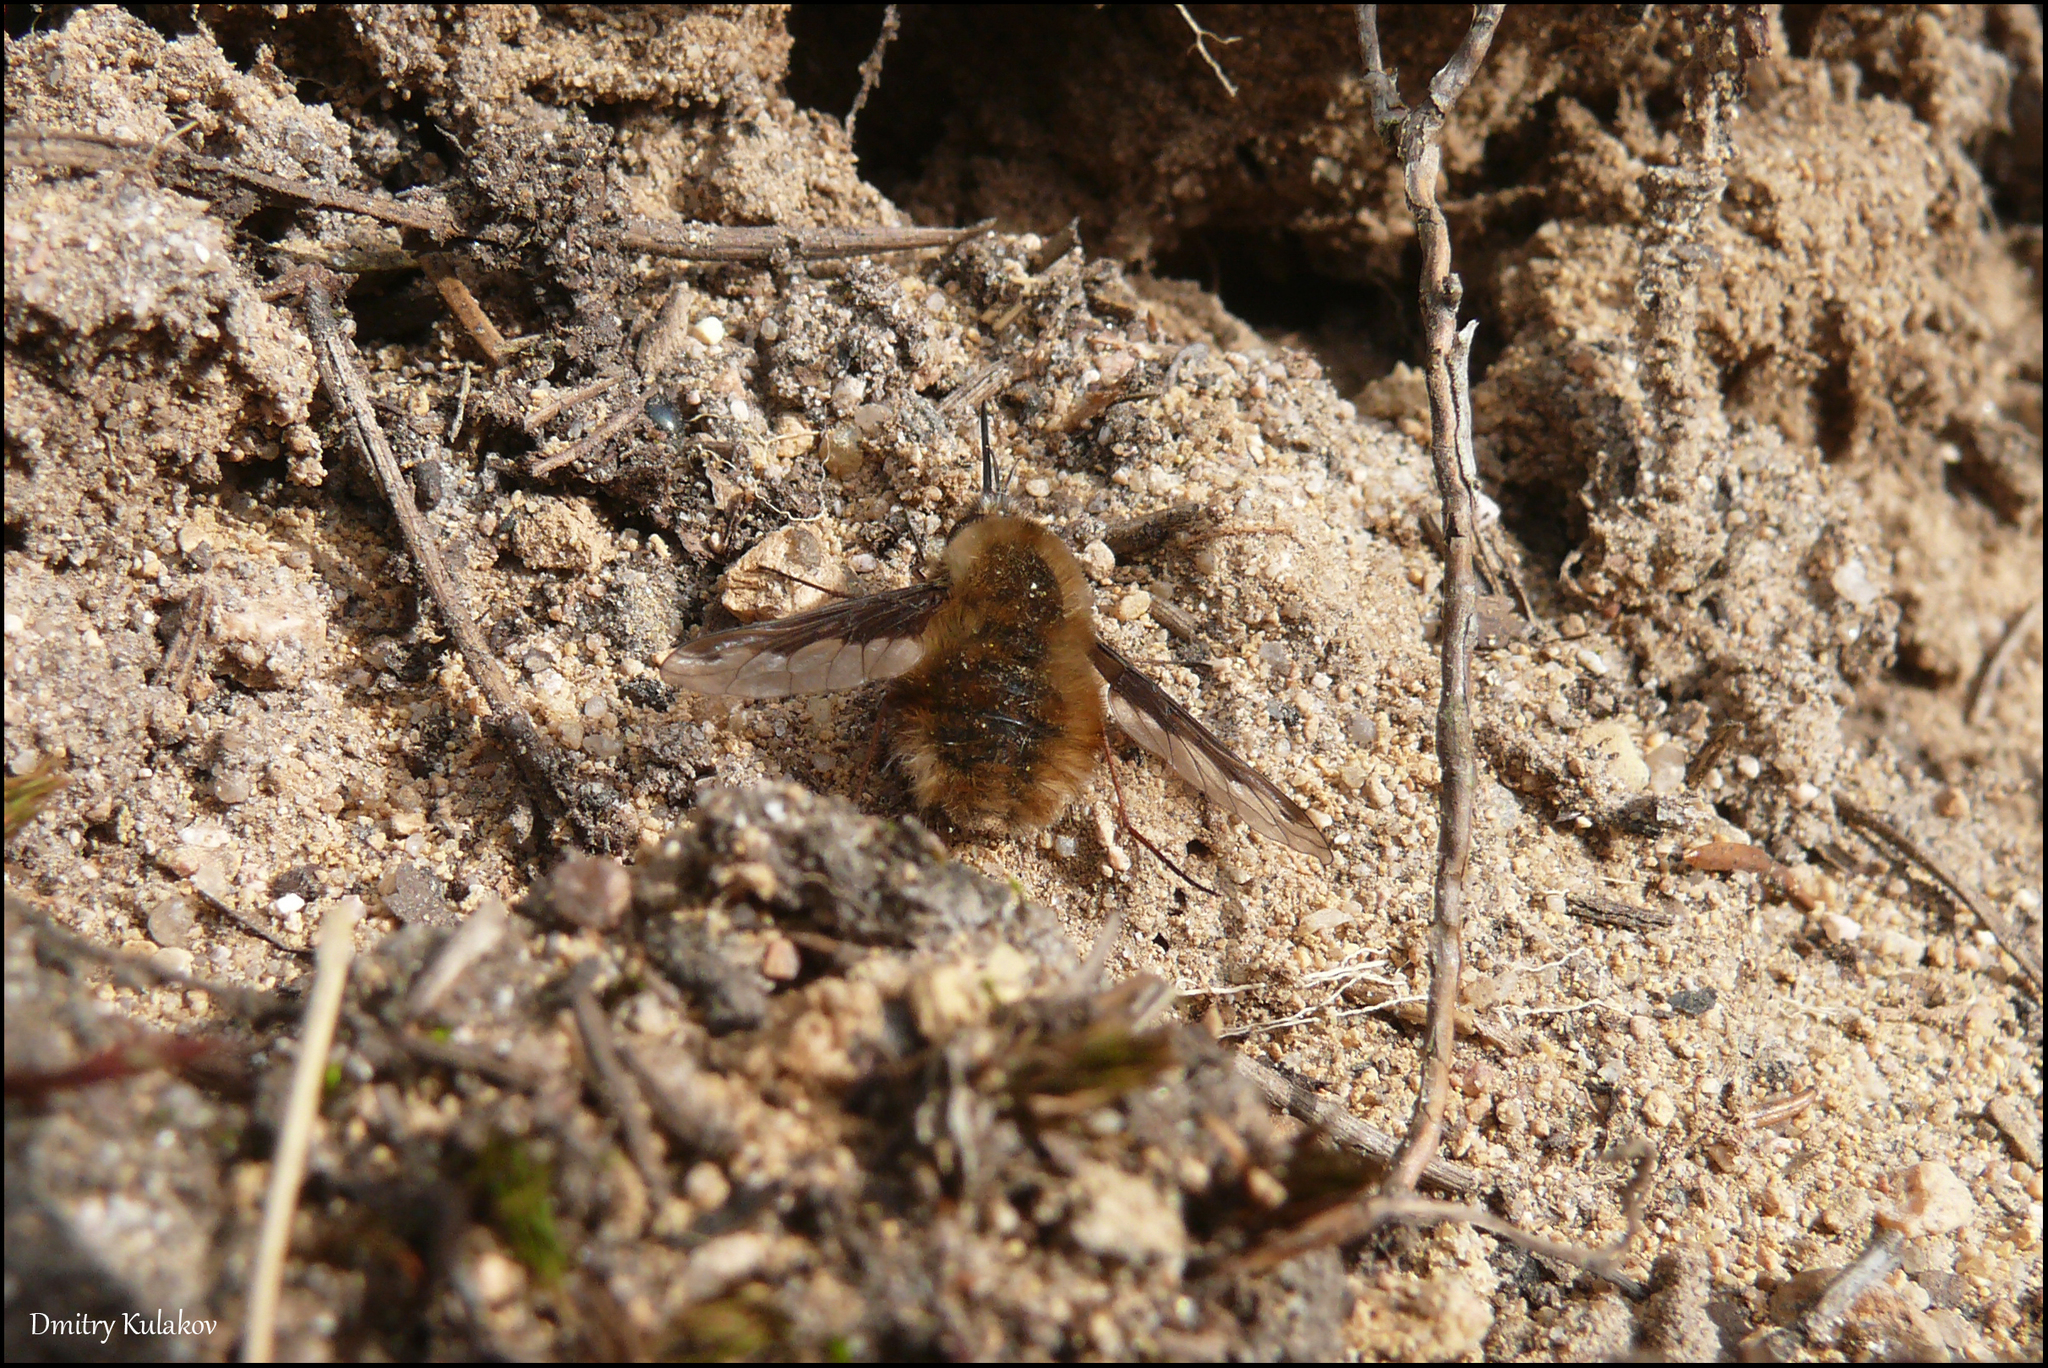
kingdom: Animalia
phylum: Arthropoda
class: Insecta
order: Diptera
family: Bombyliidae
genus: Bombylius
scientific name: Bombylius major
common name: Bee fly
